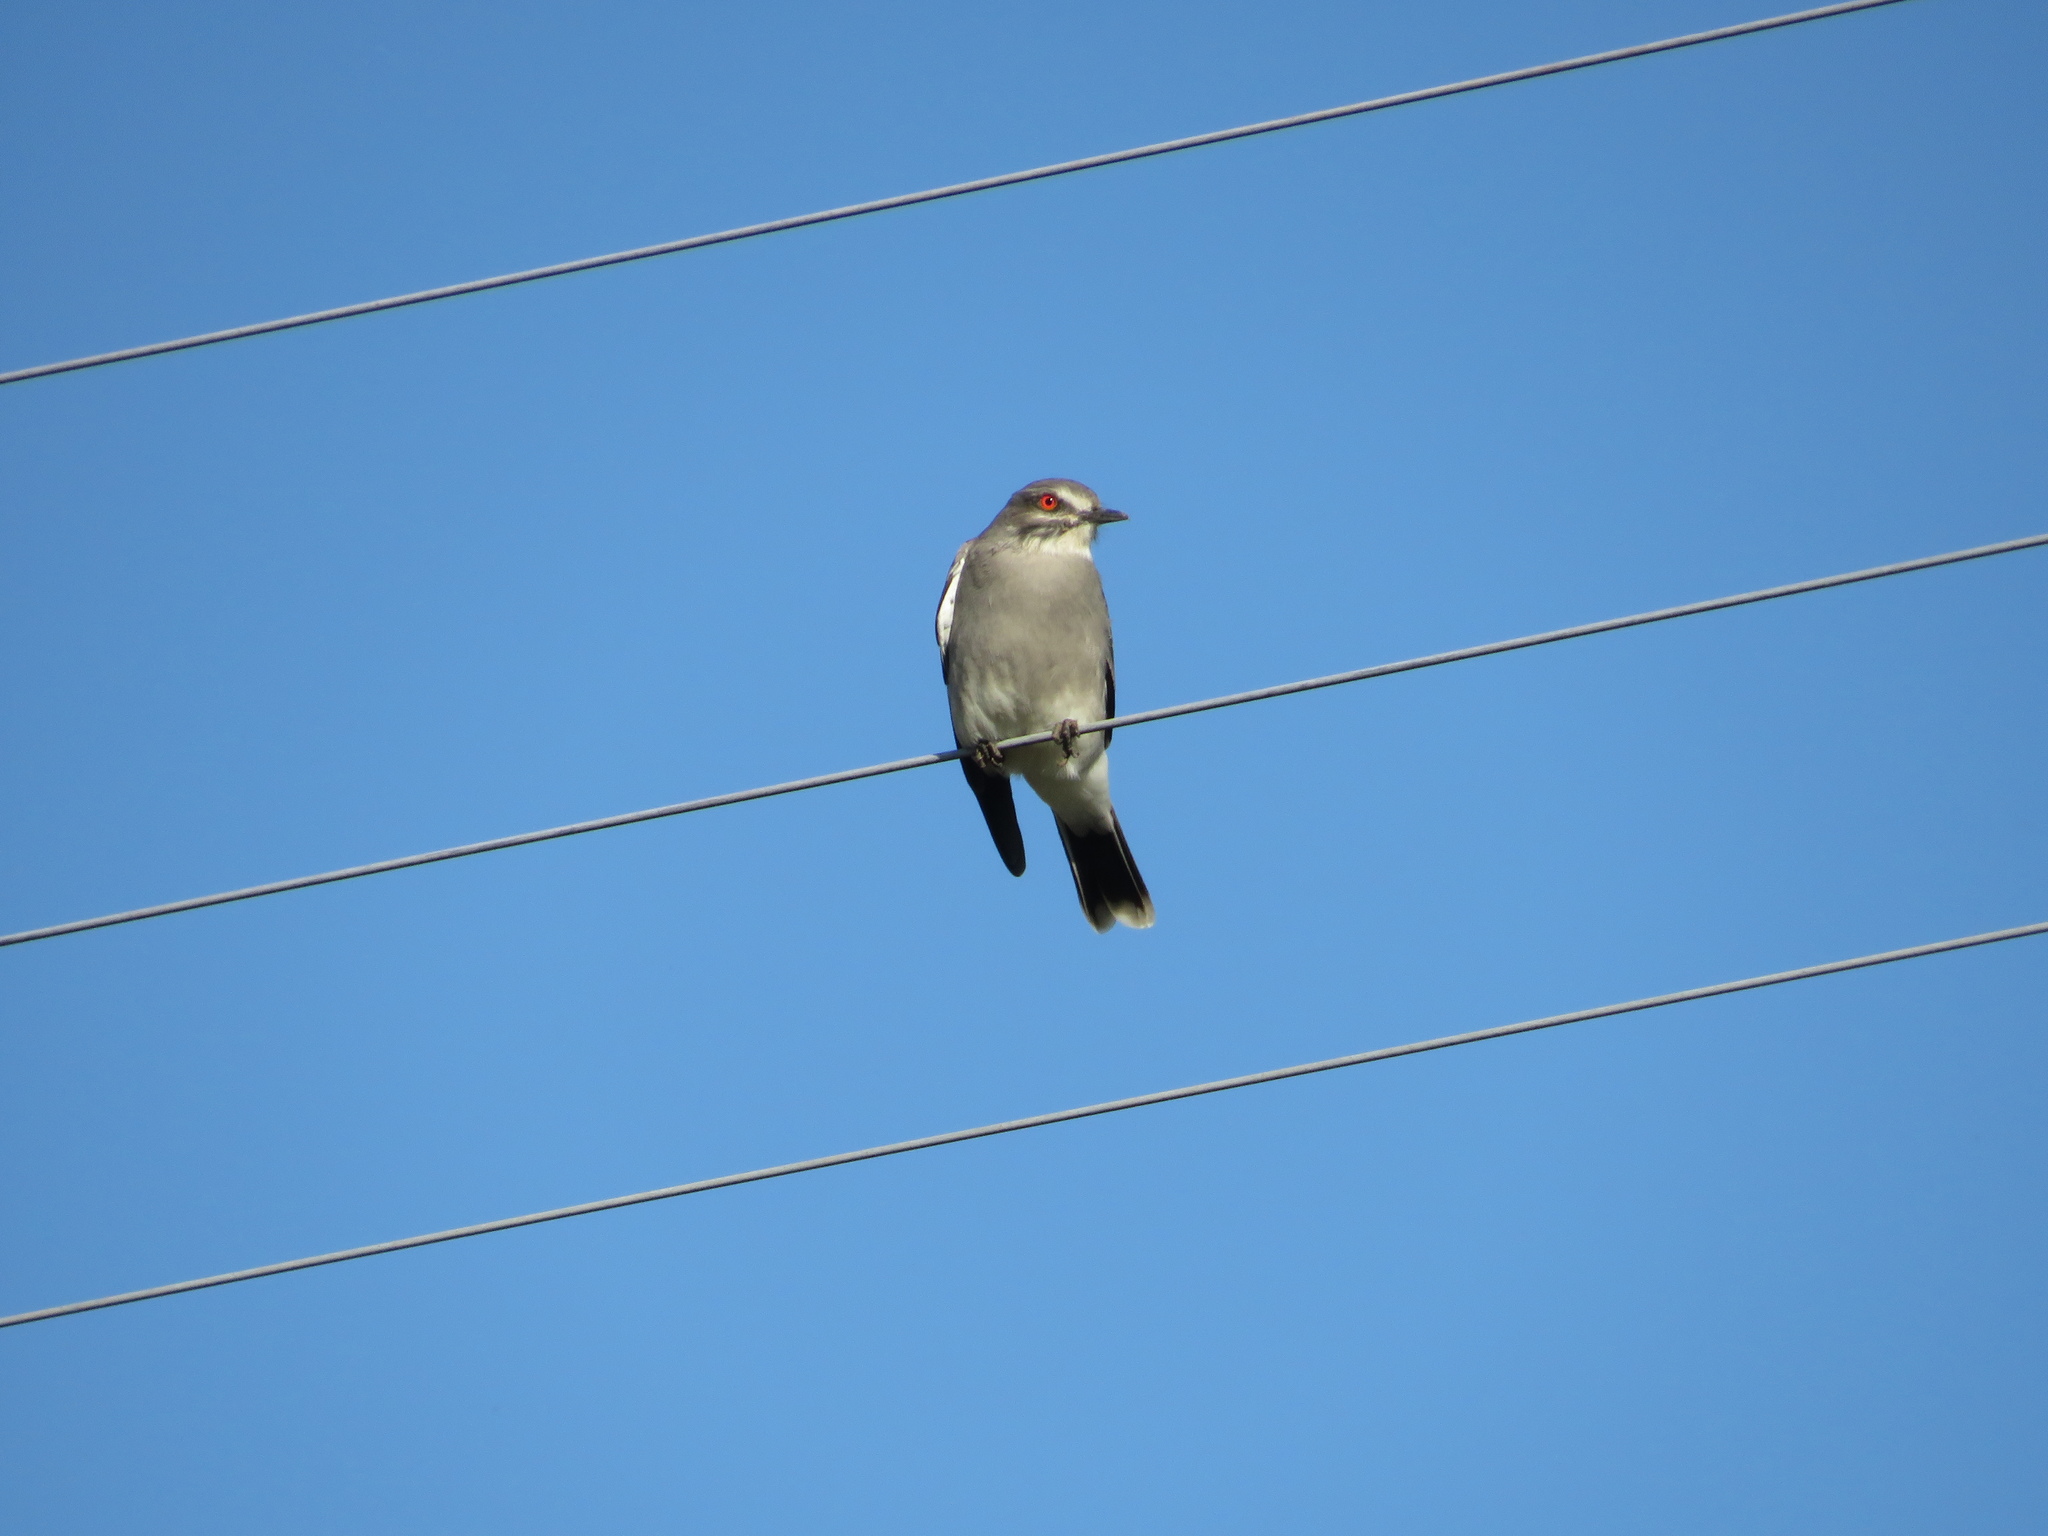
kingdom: Animalia
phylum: Chordata
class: Aves
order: Passeriformes
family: Tyrannidae
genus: Xolmis
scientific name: Xolmis cinereus
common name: Grey monjita
